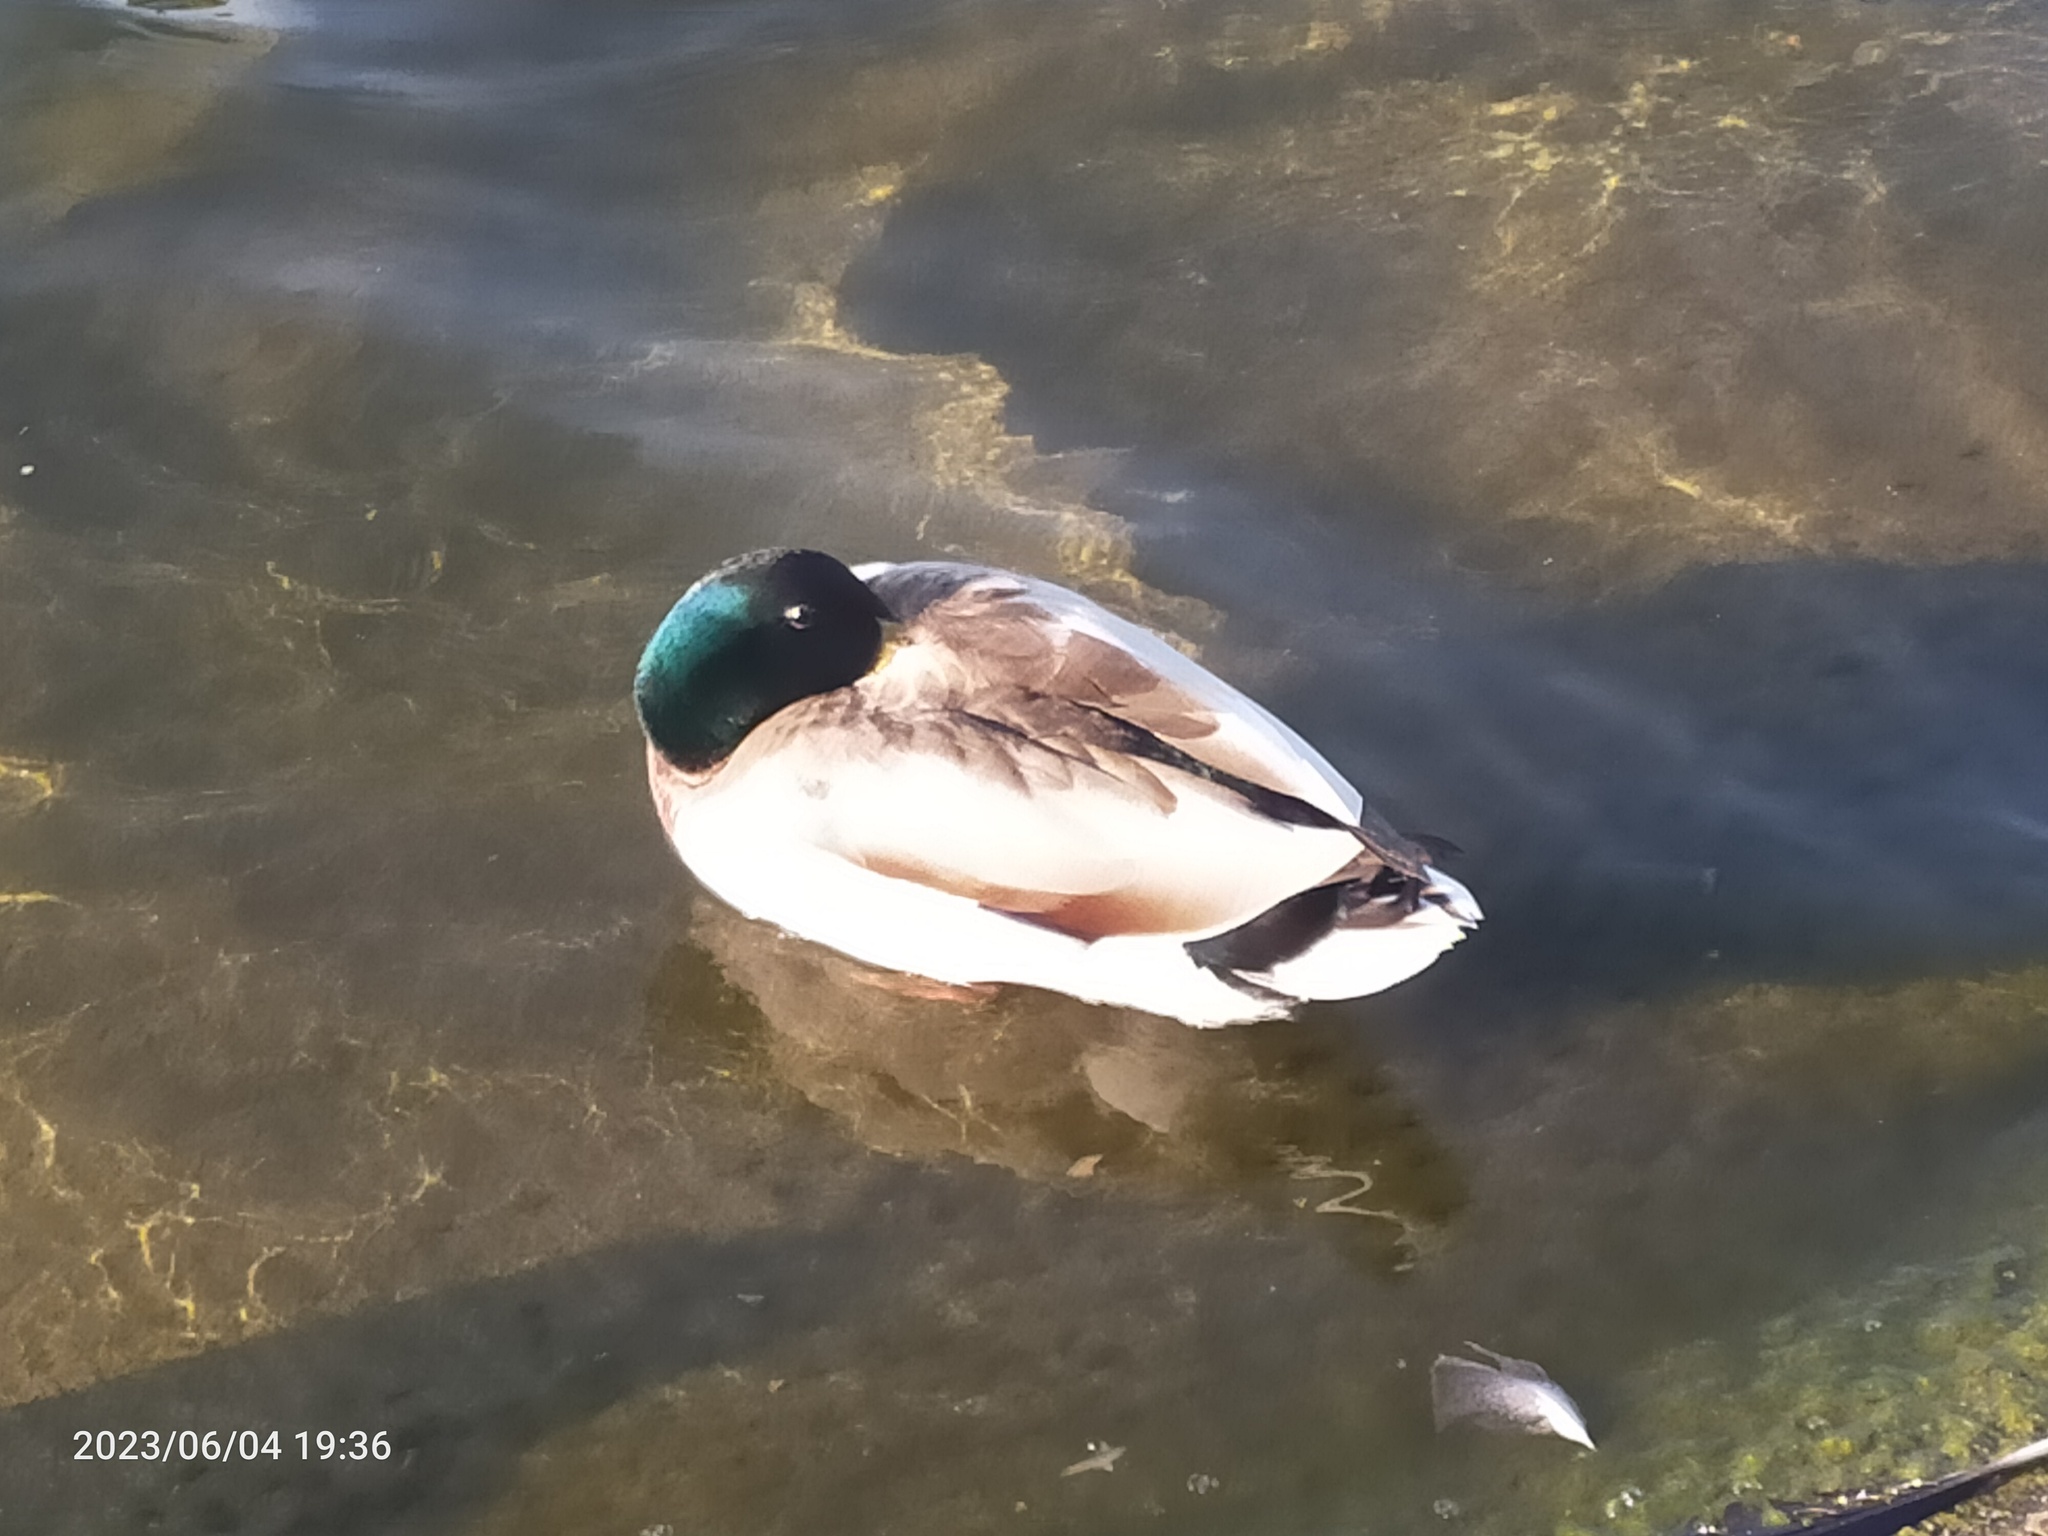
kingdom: Animalia
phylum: Chordata
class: Aves
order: Anseriformes
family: Anatidae
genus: Anas
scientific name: Anas platyrhynchos
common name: Mallard
